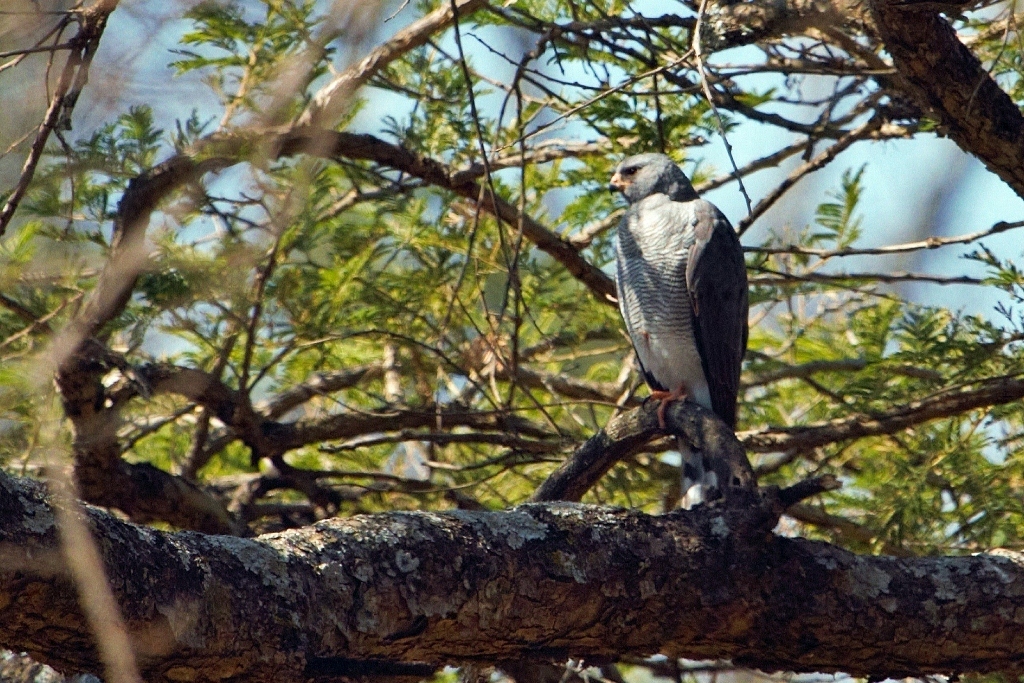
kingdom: Animalia
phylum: Chordata
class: Aves
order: Accipitriformes
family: Accipitridae
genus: Micronisus
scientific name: Micronisus gabar
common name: Gabar goshawk
